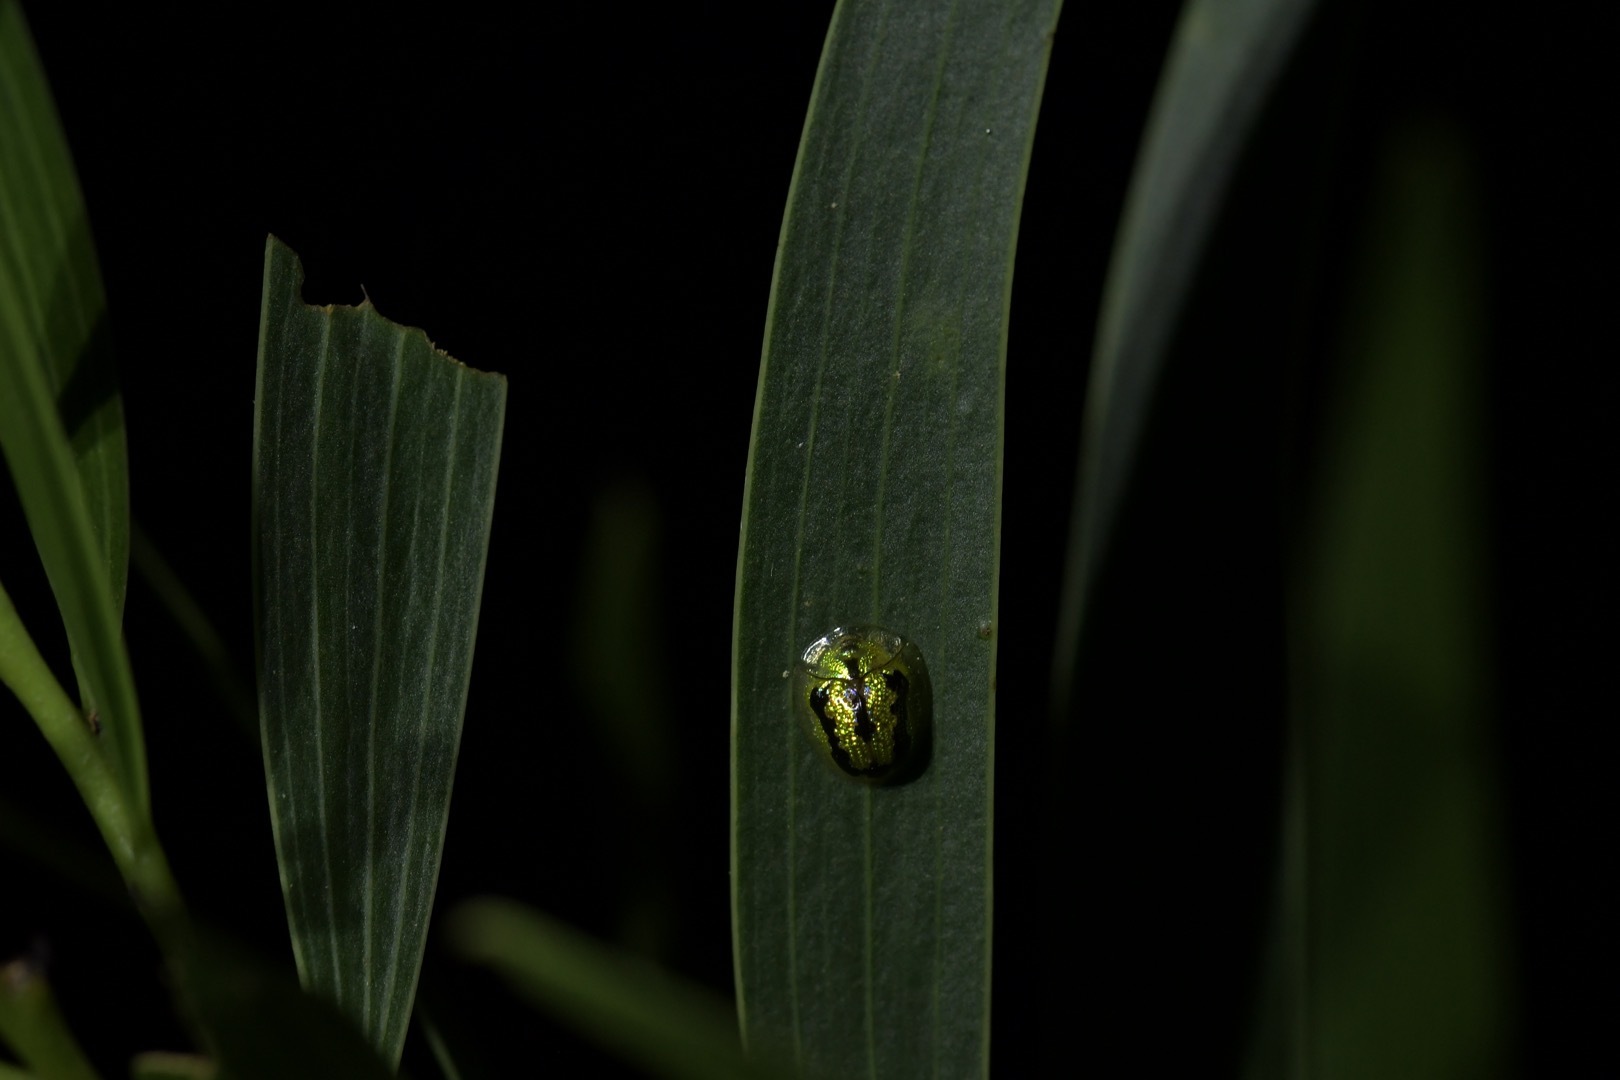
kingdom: Animalia
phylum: Arthropoda
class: Insecta
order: Coleoptera
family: Chrysomelidae
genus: Cassida
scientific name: Cassida circumdata
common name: Tortoise beetle
